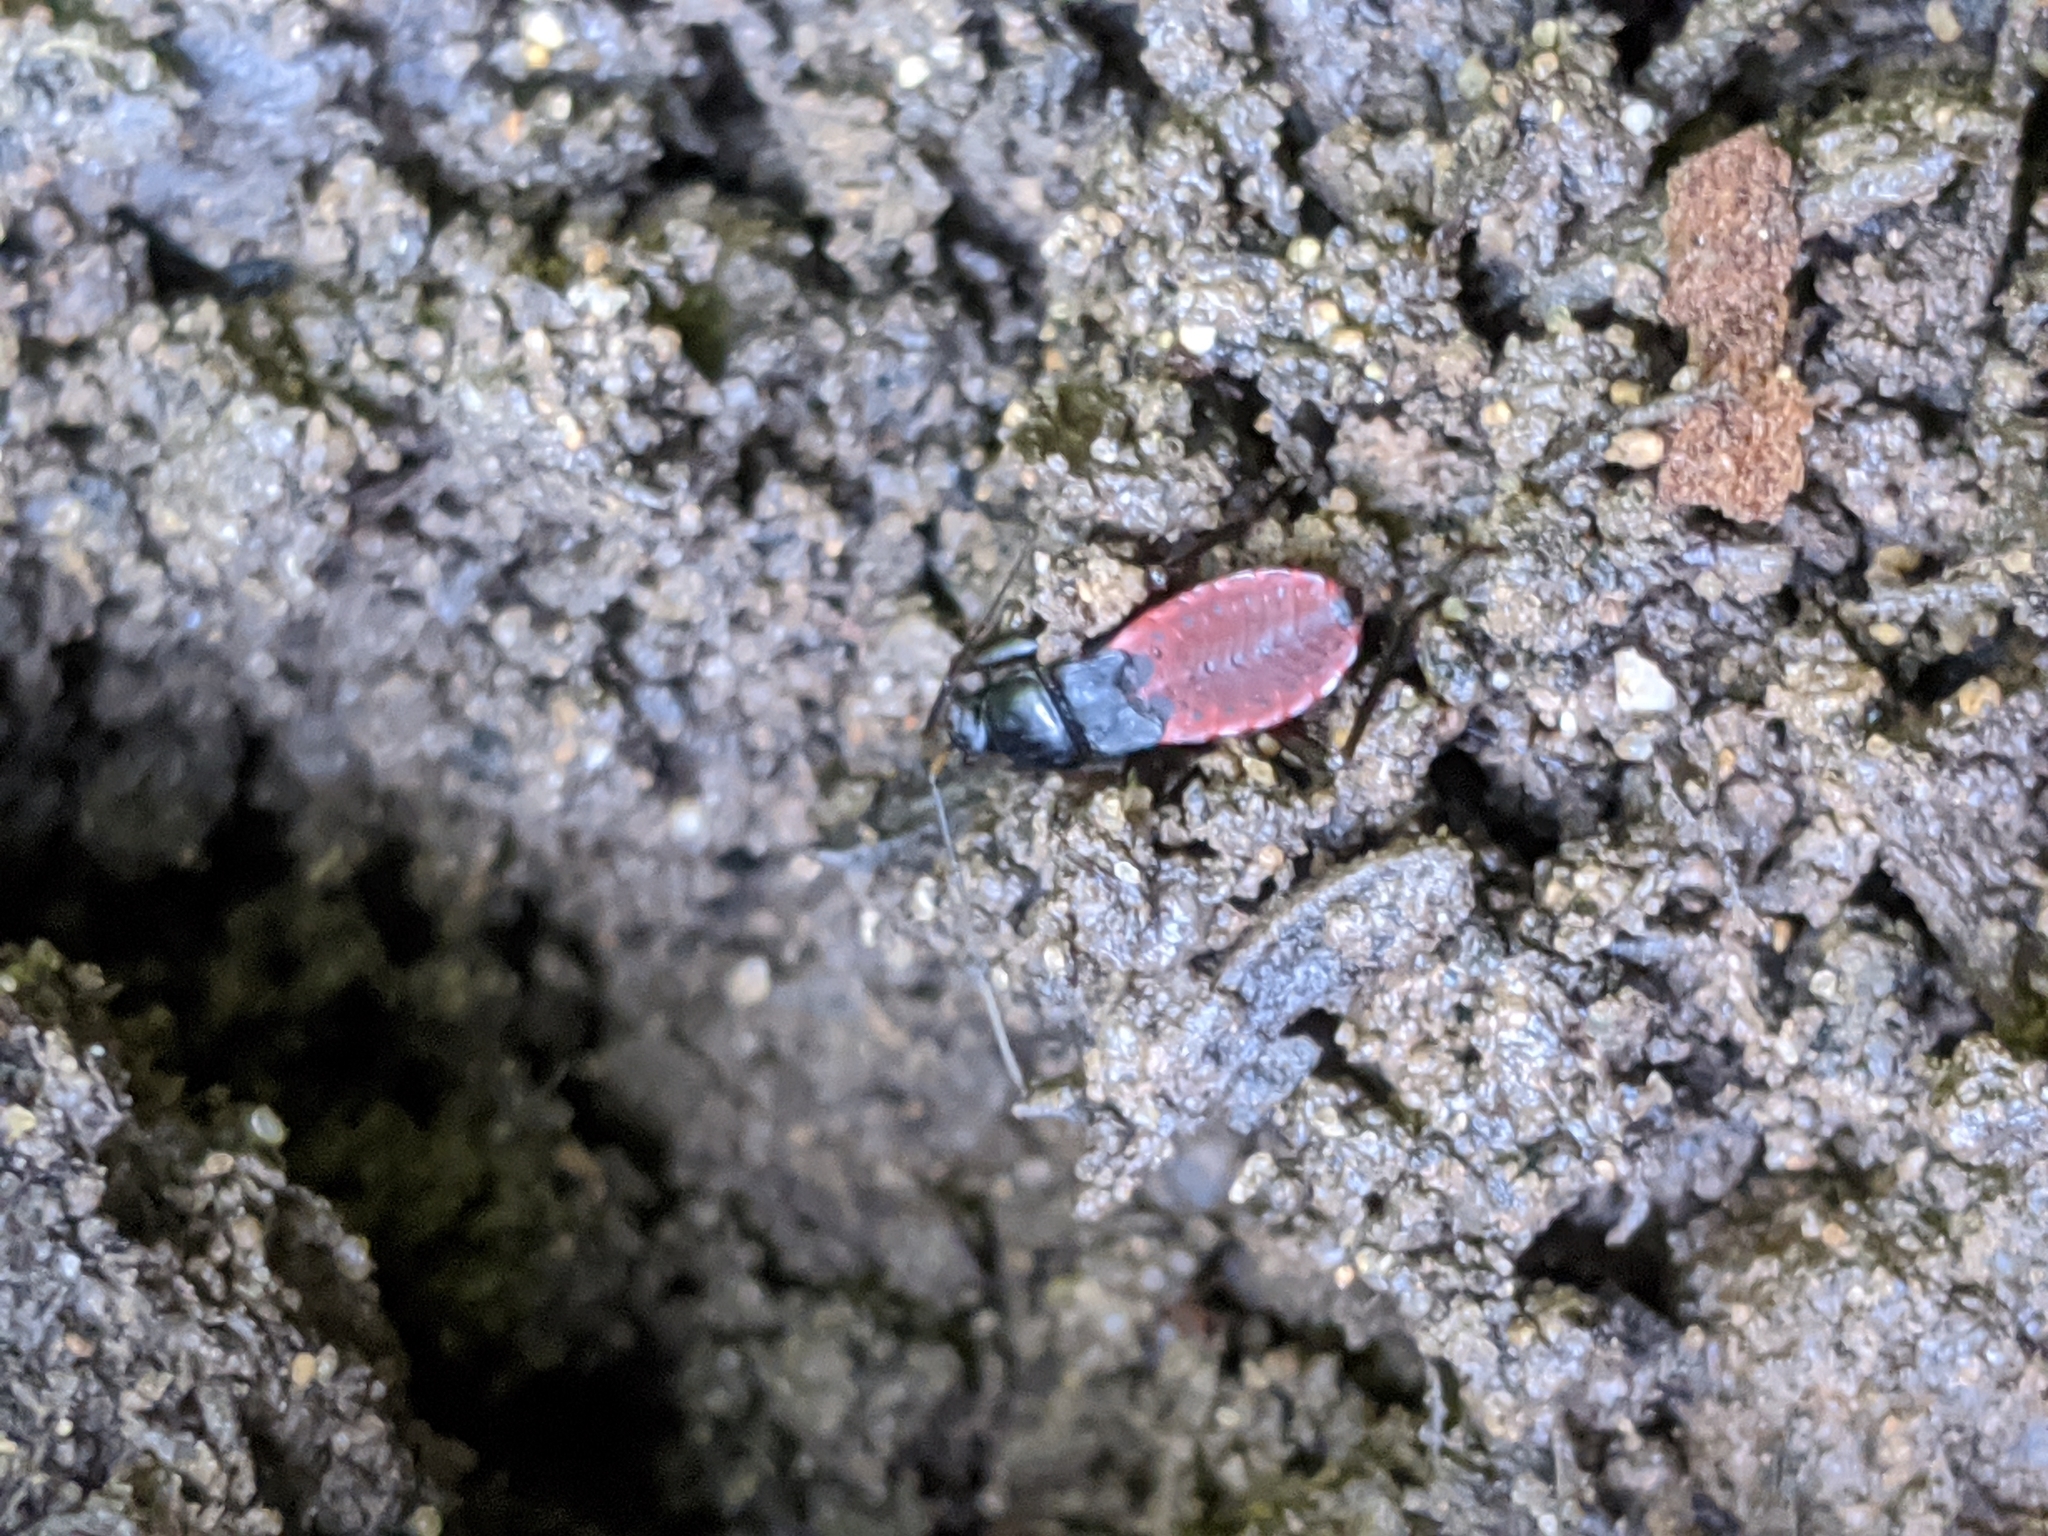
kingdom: Animalia
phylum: Arthropoda
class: Insecta
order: Hemiptera
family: Reduviidae
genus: Melanolestes
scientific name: Melanolestes picipes
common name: Assassin bug
